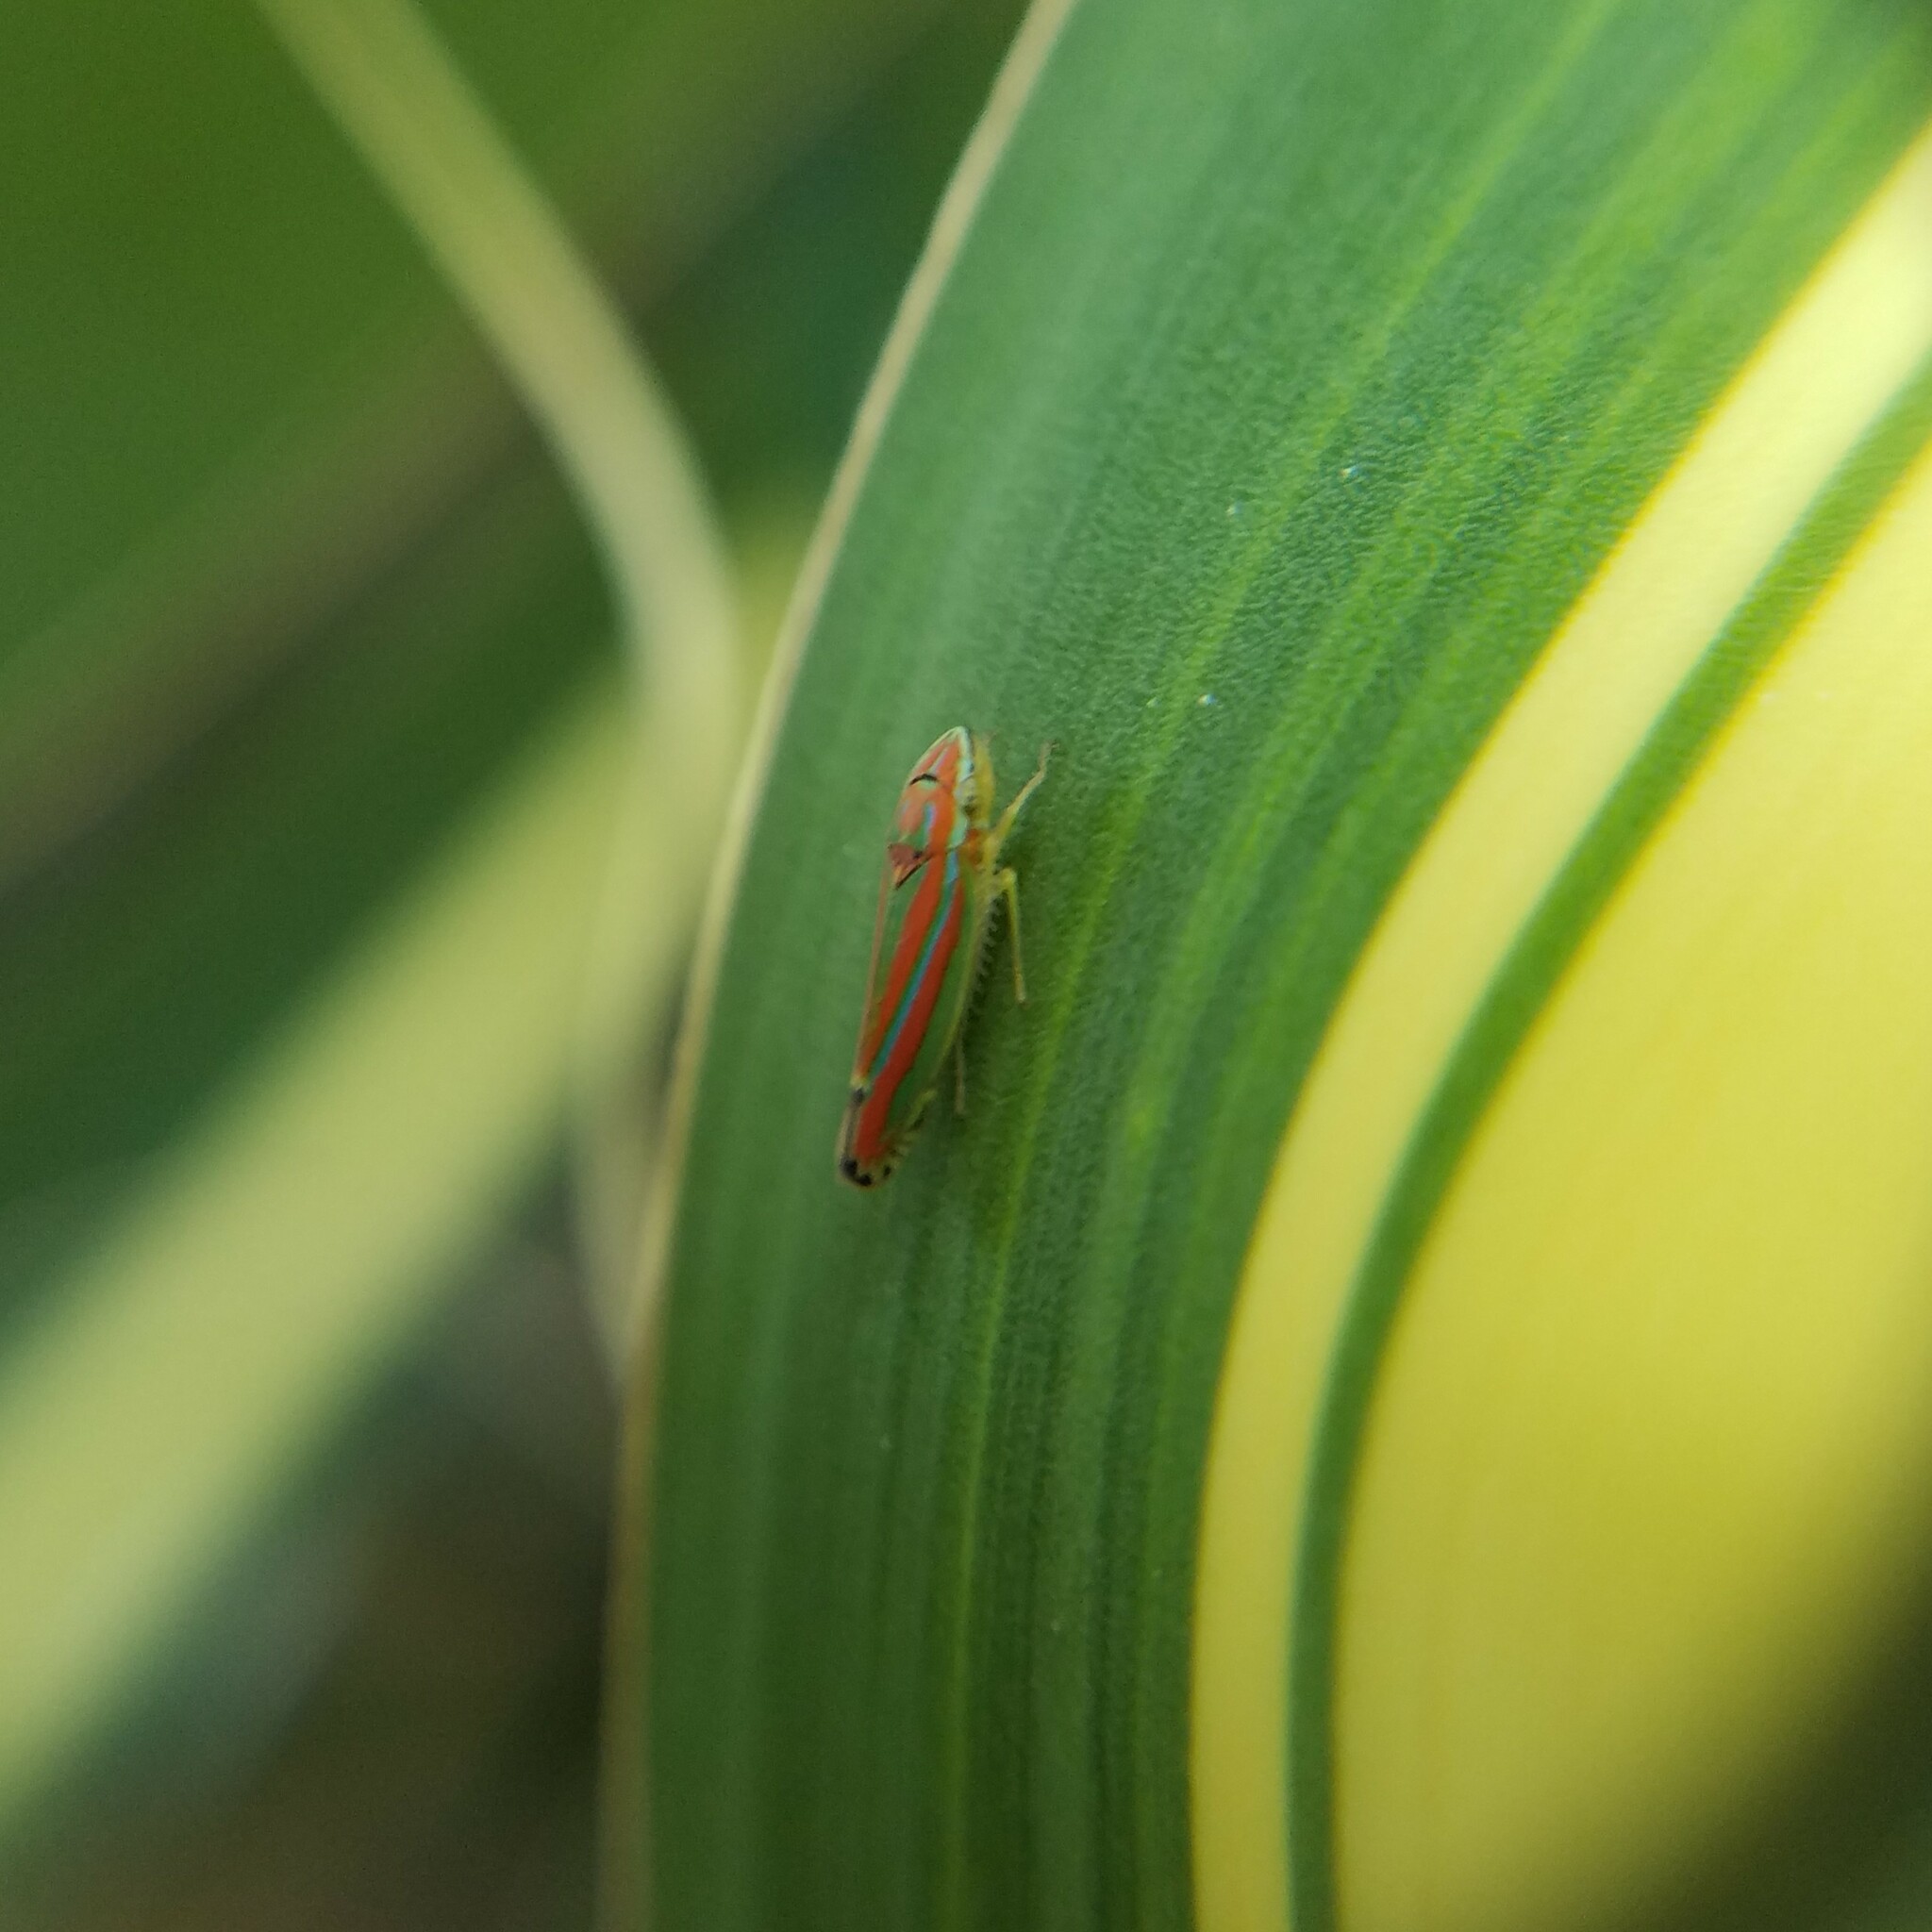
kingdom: Animalia
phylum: Arthropoda
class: Insecta
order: Hemiptera
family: Cicadellidae
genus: Graphocephala
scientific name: Graphocephala versuta
